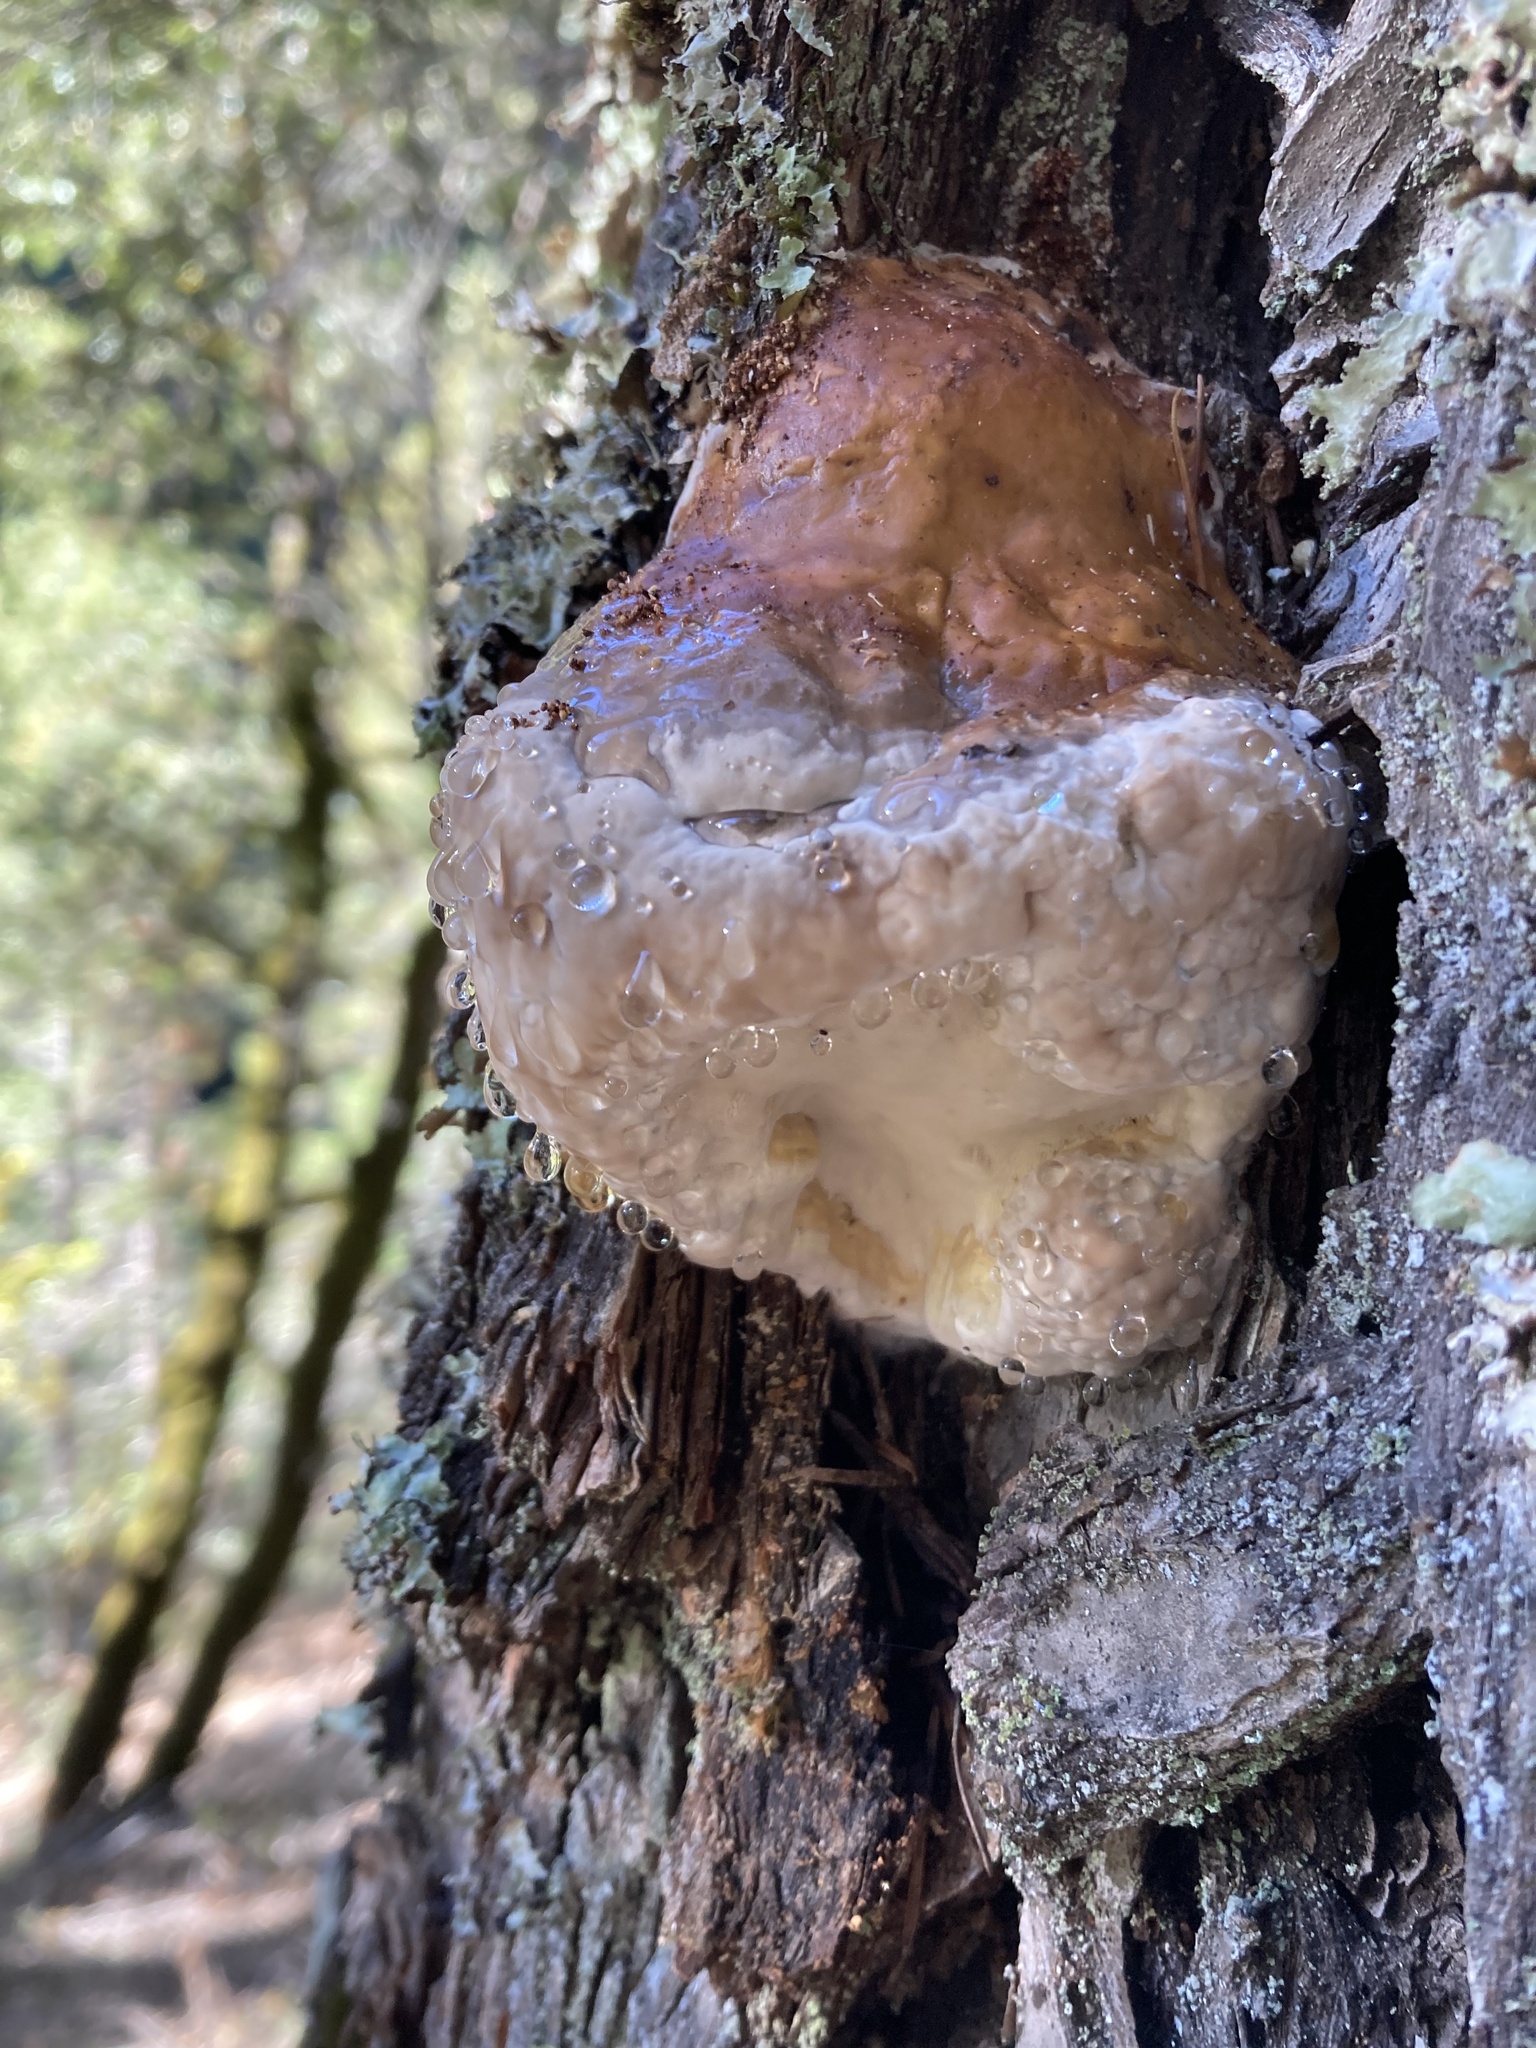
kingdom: Fungi
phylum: Basidiomycota
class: Agaricomycetes
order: Polyporales
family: Fomitopsidaceae
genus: Fomitopsis
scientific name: Fomitopsis mounceae
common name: Northern red belt
